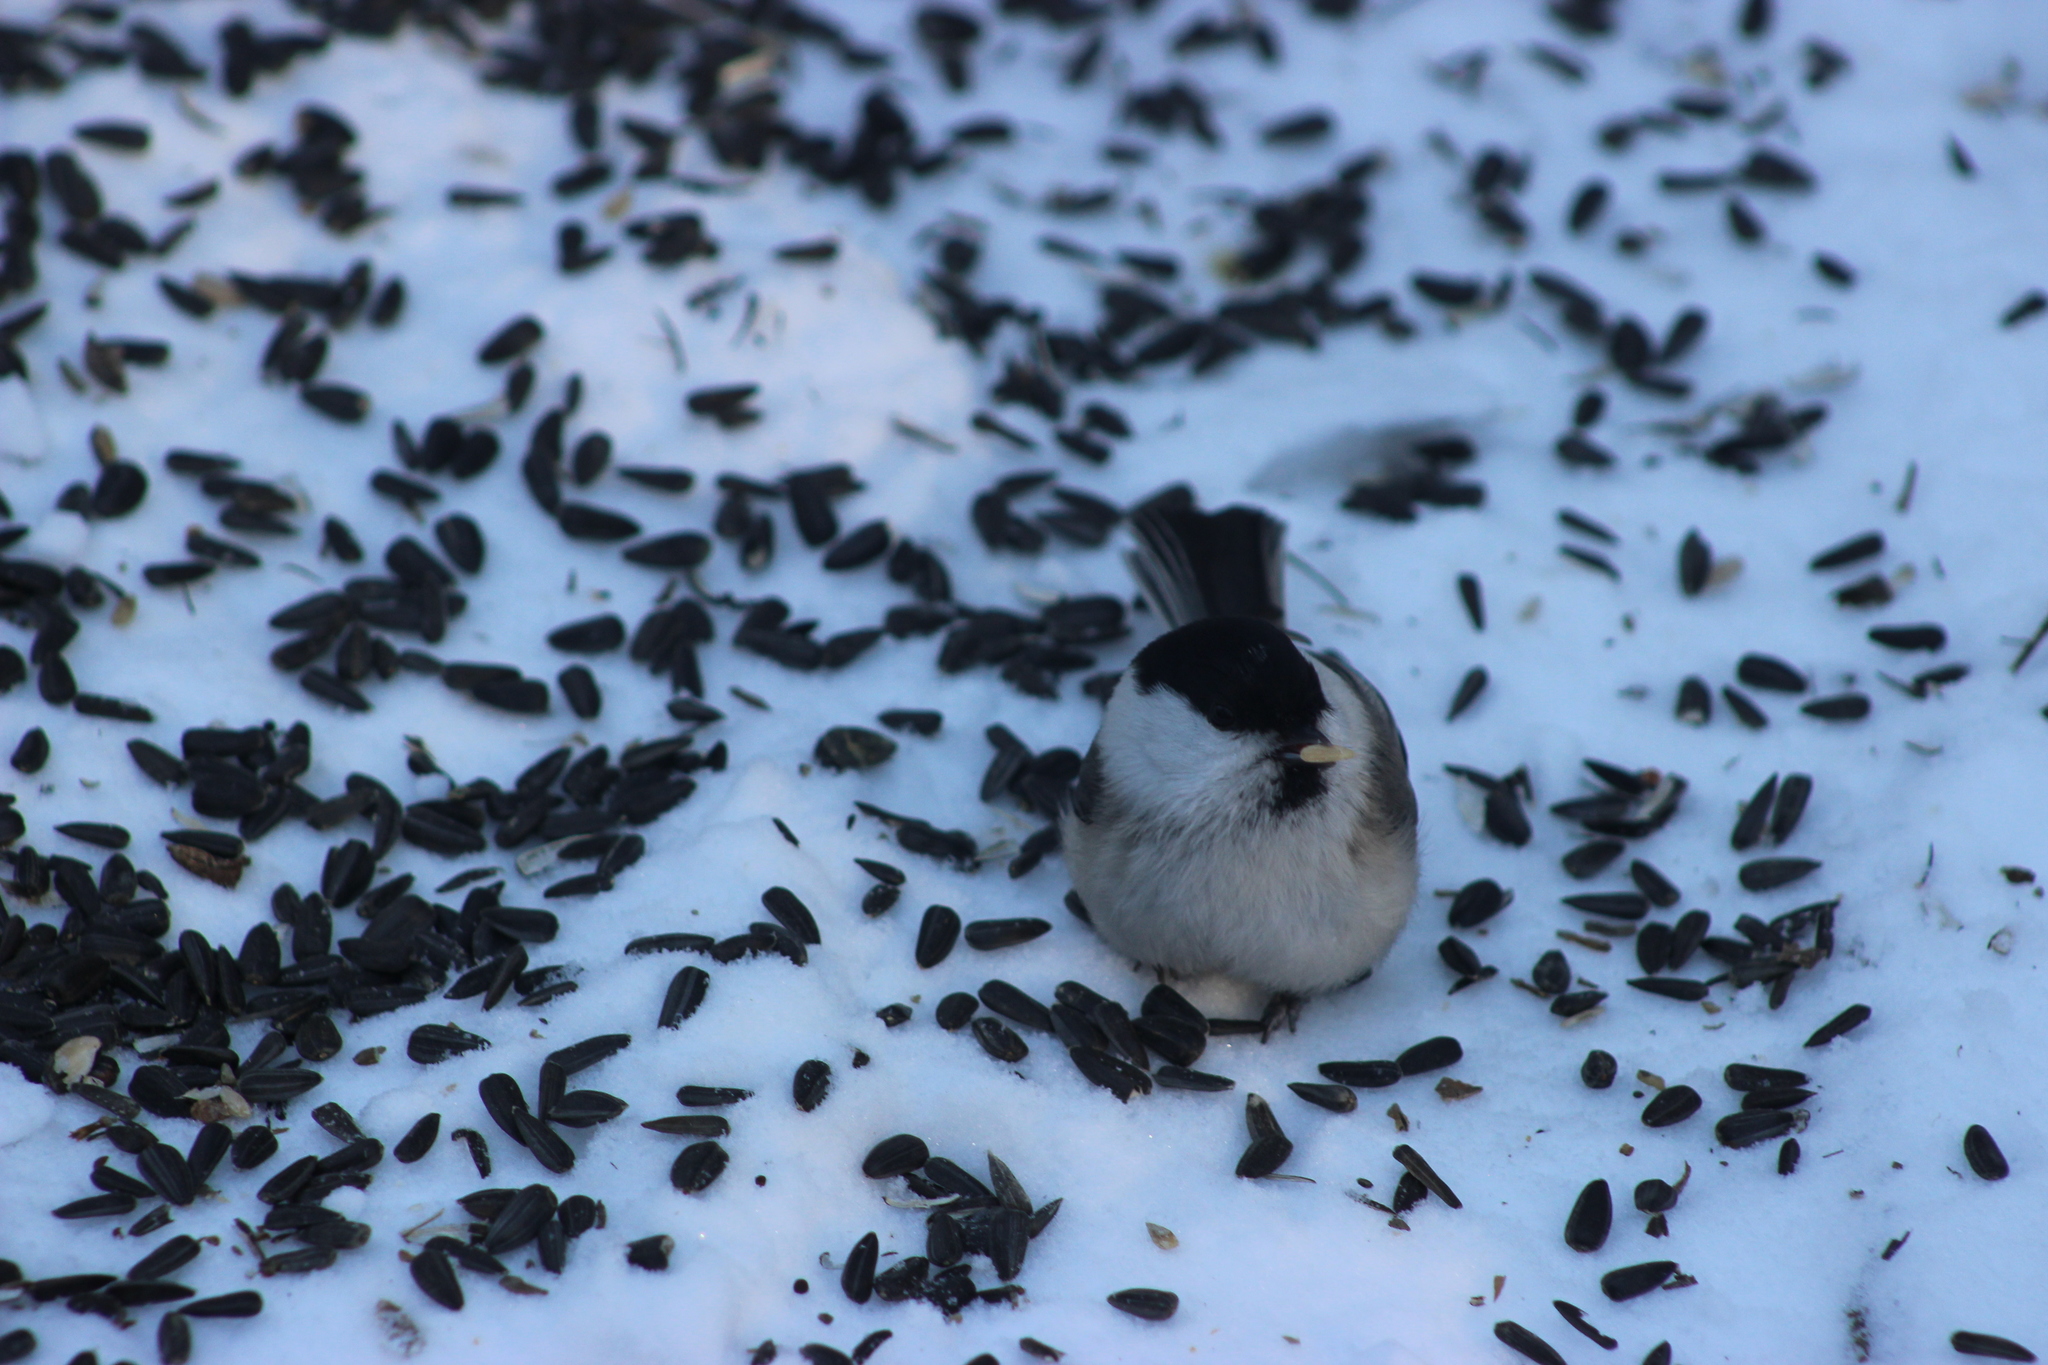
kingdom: Animalia
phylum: Chordata
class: Aves
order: Passeriformes
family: Paridae
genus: Poecile
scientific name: Poecile montanus
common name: Willow tit
